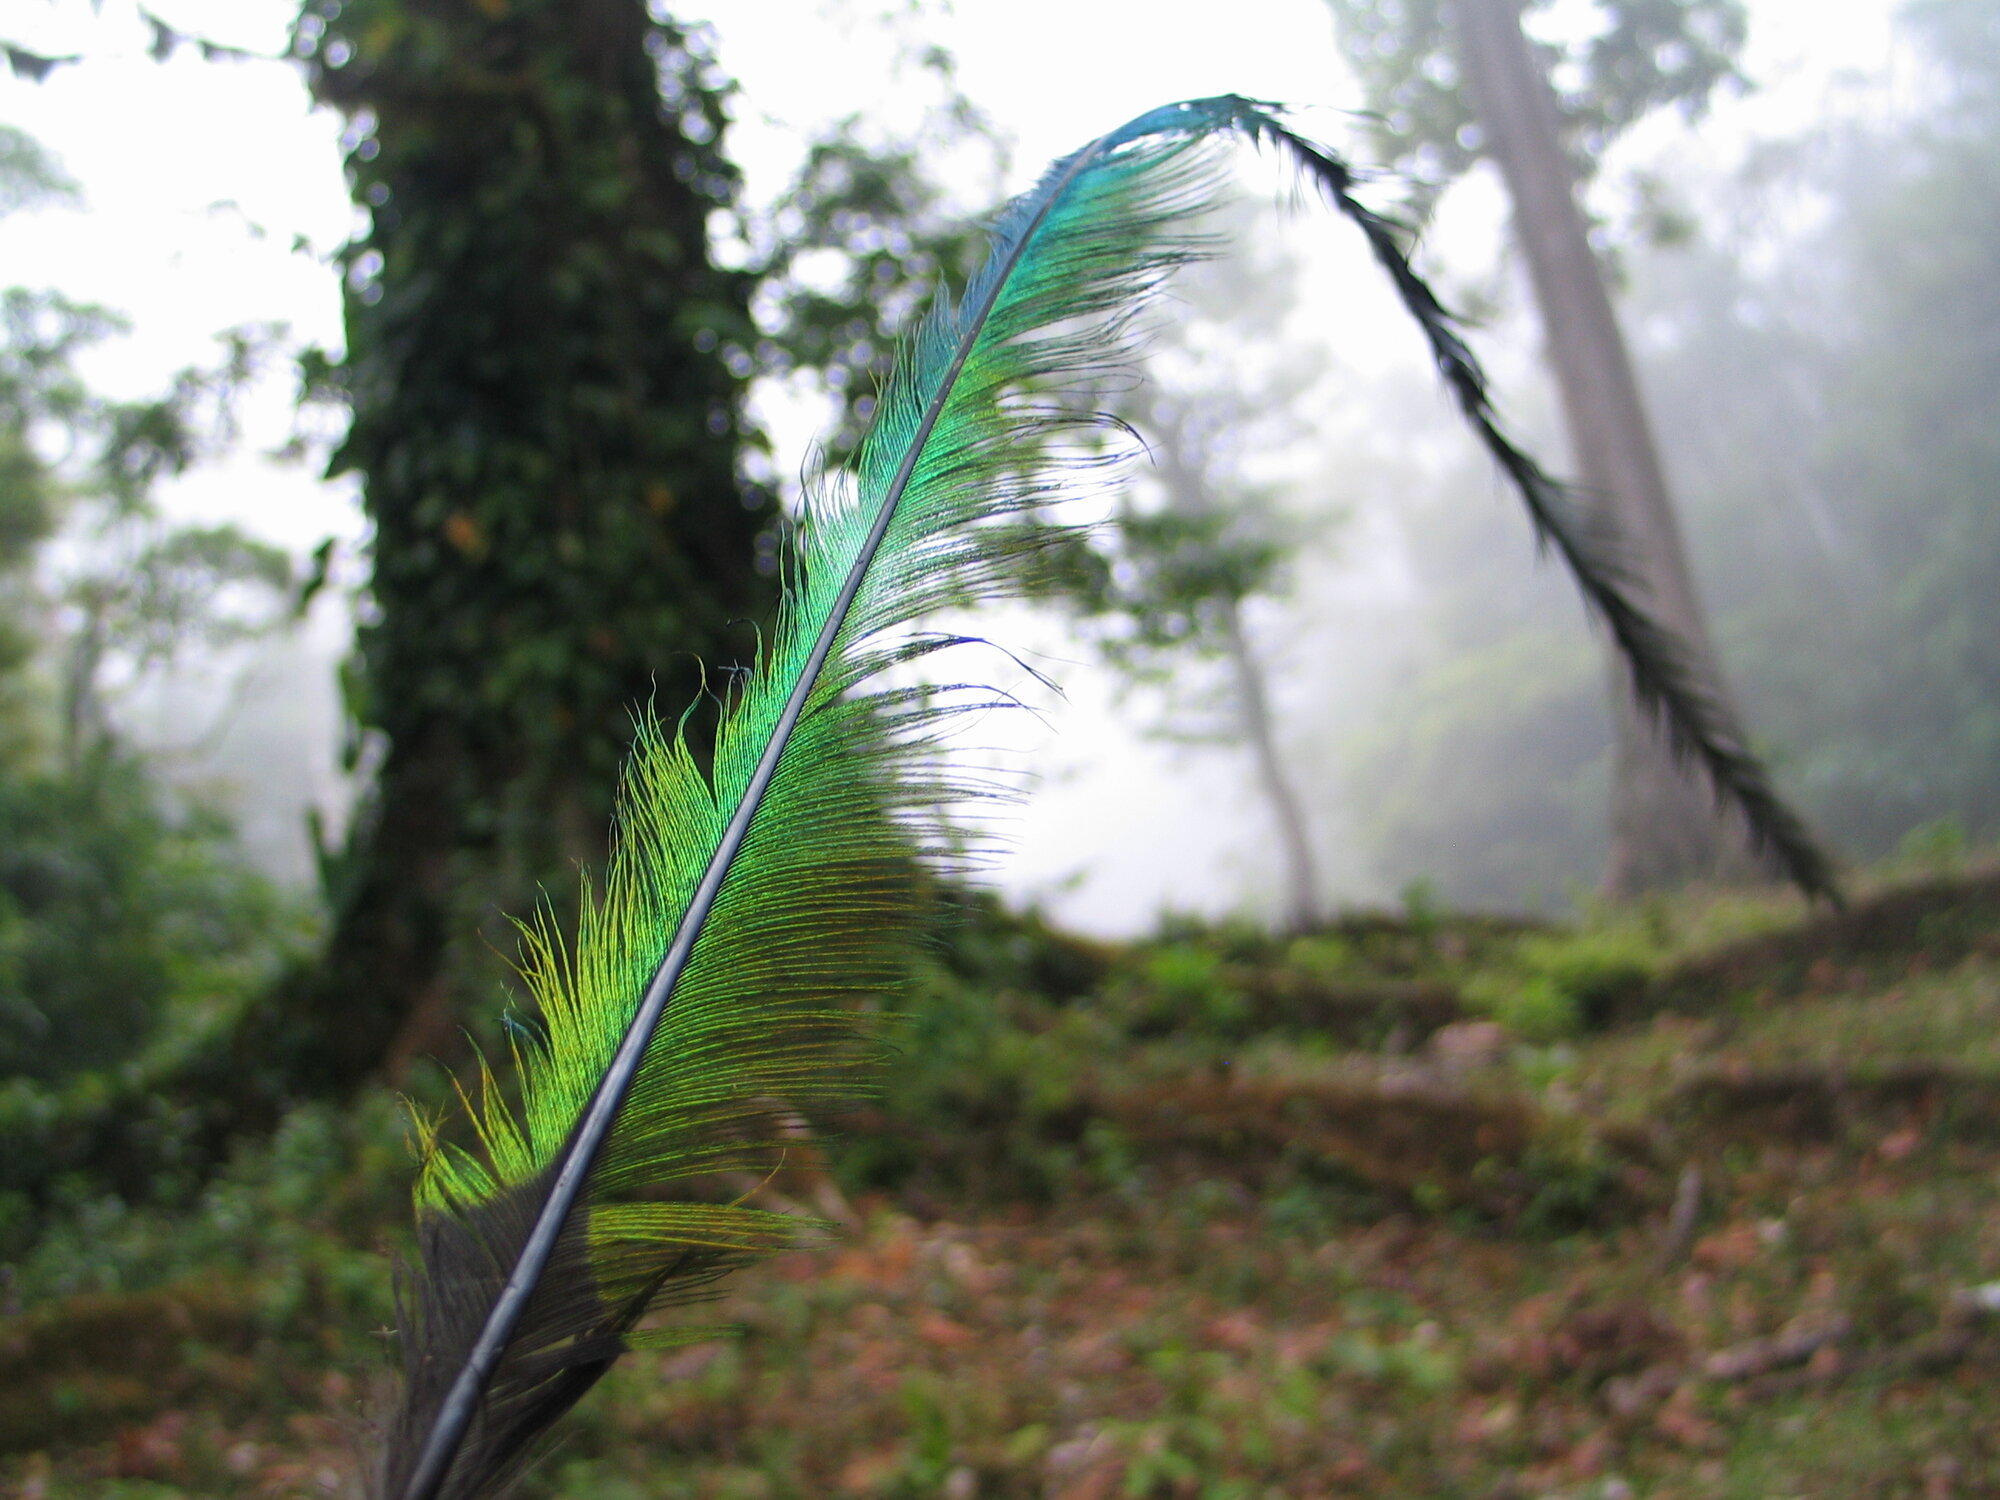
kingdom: Animalia
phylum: Chordata
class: Aves
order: Trogoniformes
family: Trogonidae
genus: Pharomachrus
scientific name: Pharomachrus mocinno
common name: Resplendent quetzal
